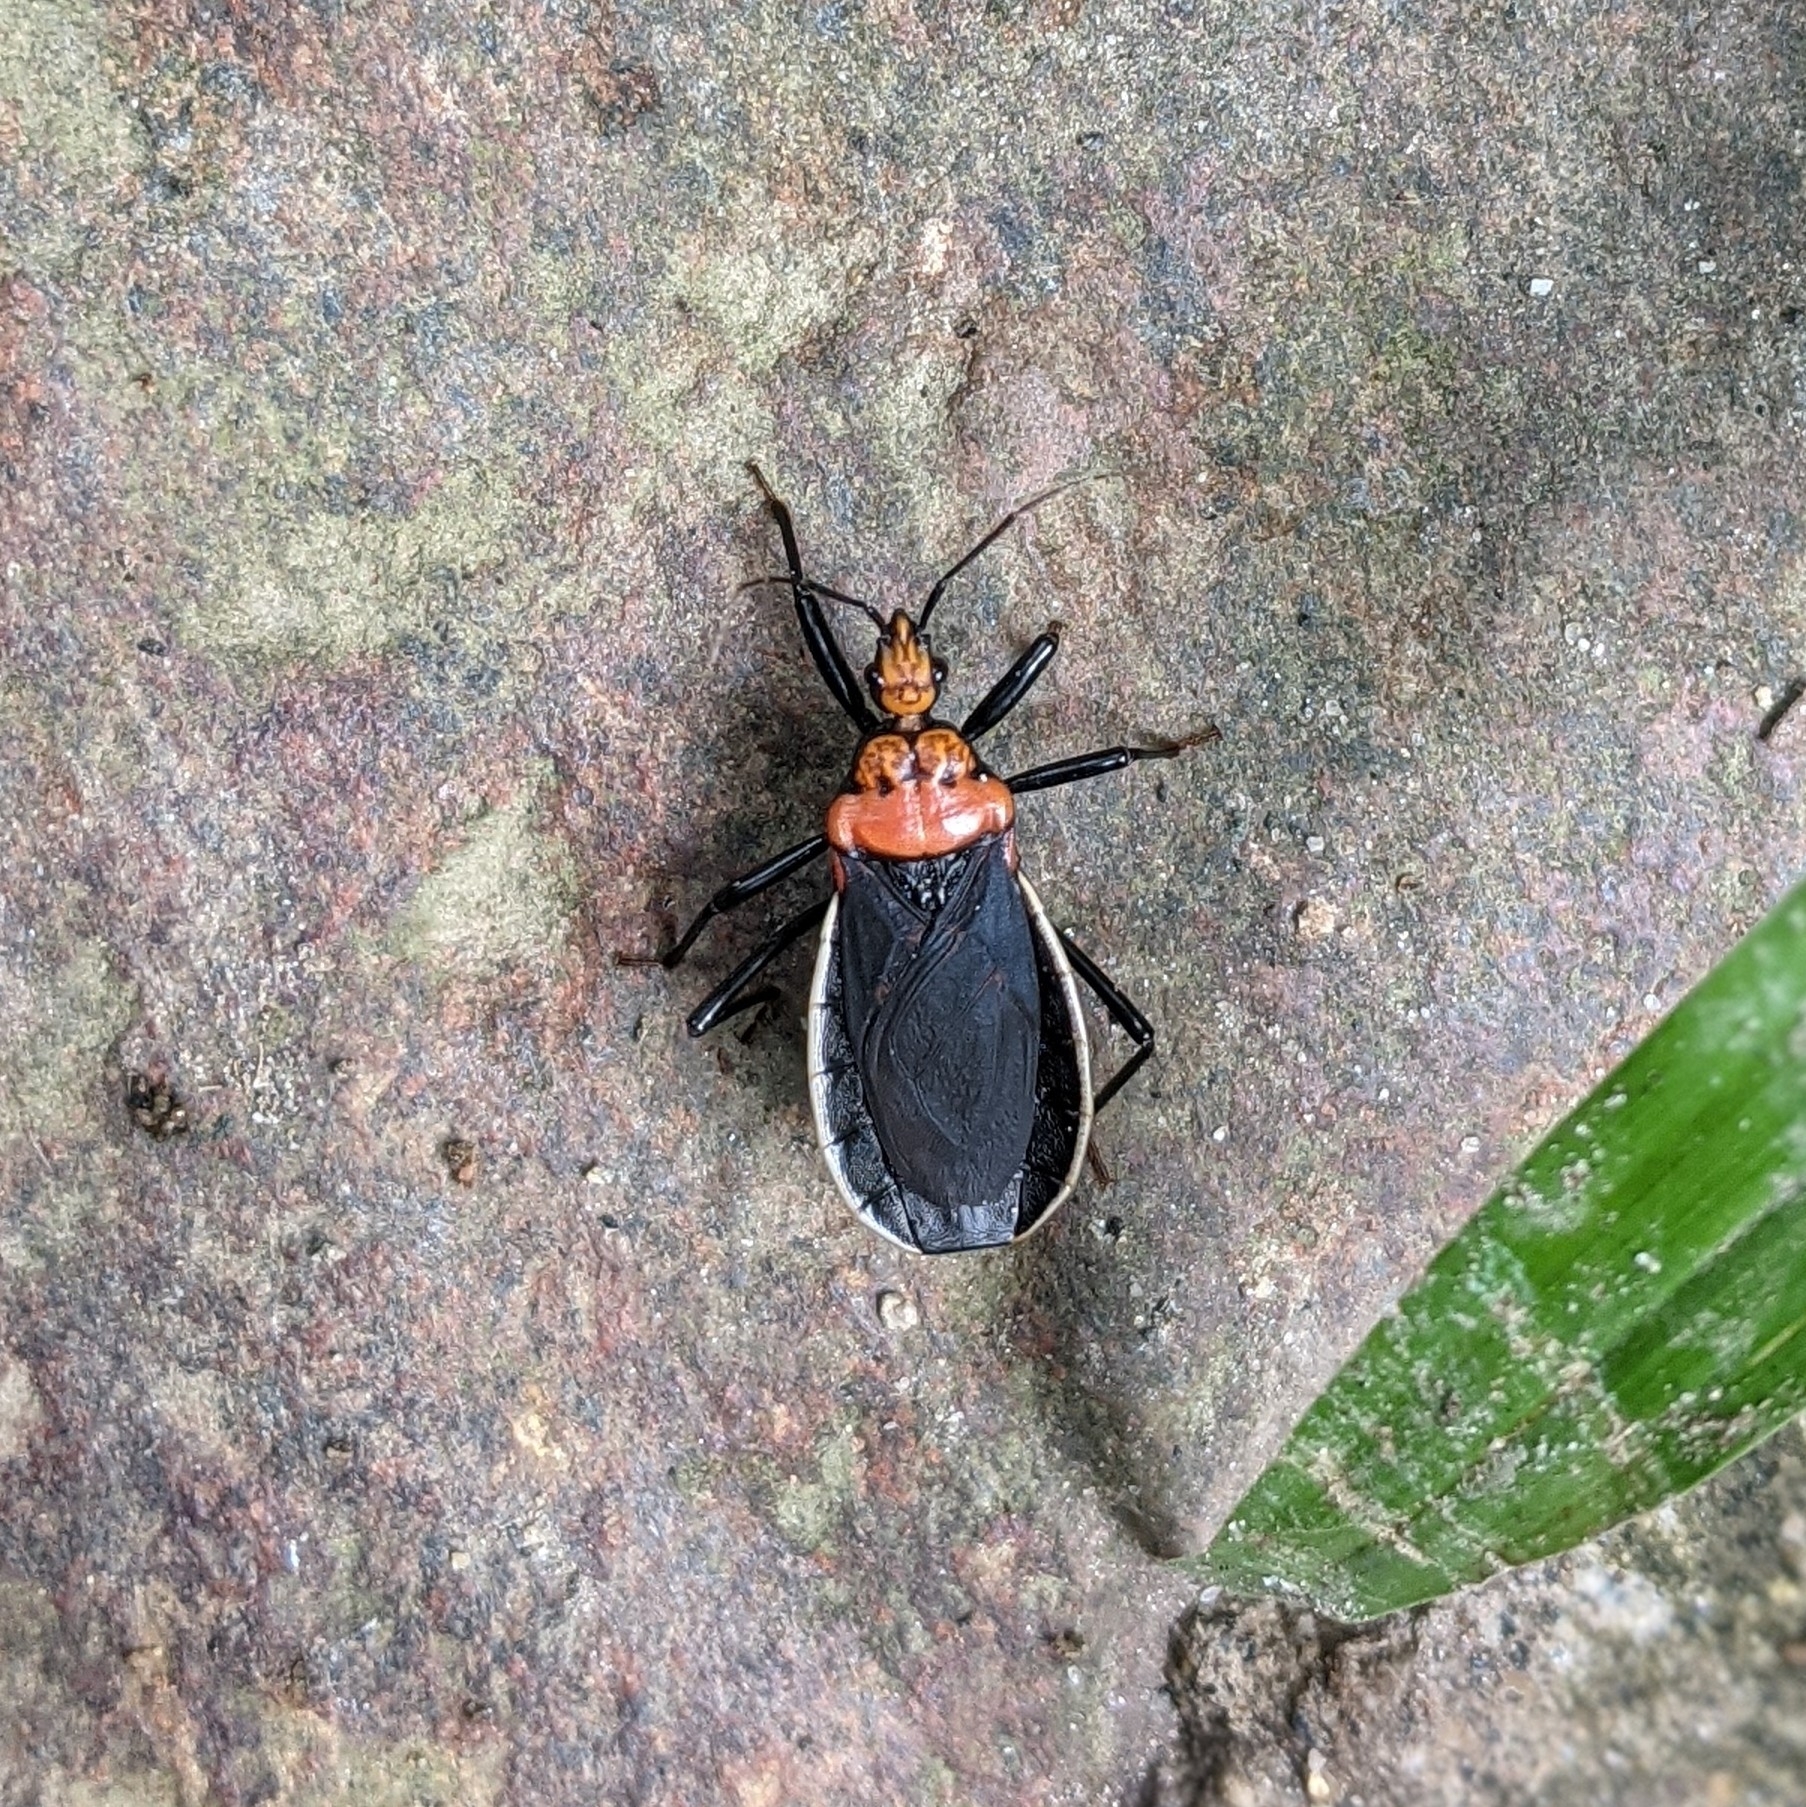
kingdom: Animalia
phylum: Arthropoda
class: Insecta
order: Hemiptera
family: Reduviidae
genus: Rhiginia
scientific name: Rhiginia bimaculata
